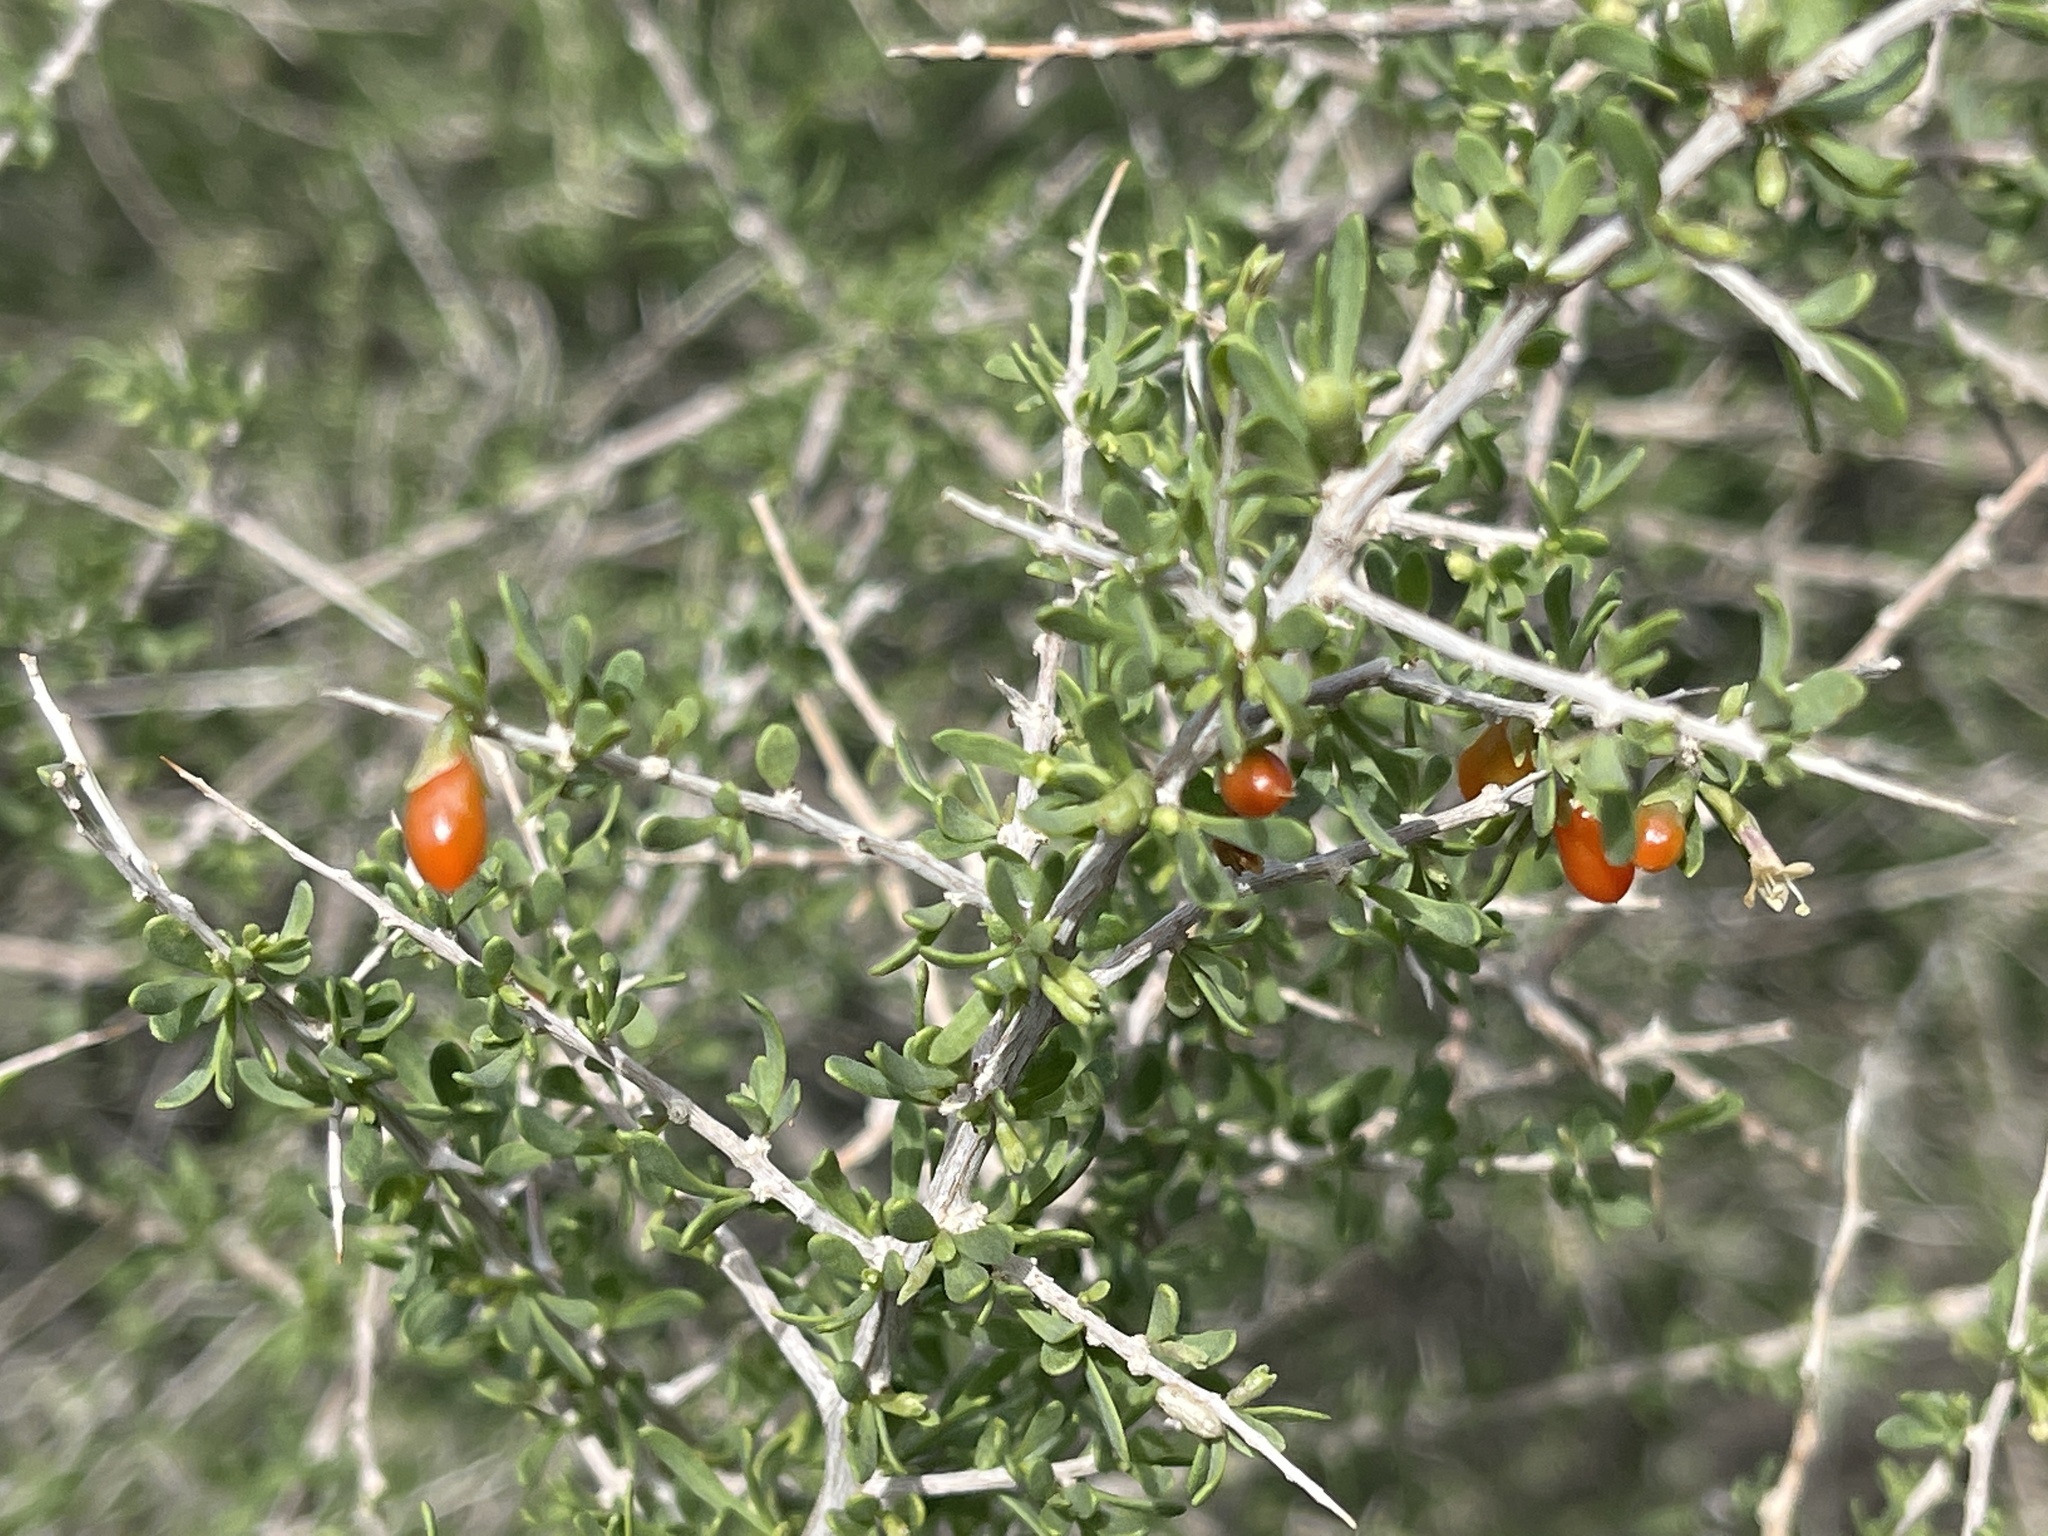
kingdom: Plantae
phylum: Tracheophyta
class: Magnoliopsida
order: Solanales
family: Solanaceae
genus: Lycium
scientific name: Lycium andersonii
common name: Water-jacket
